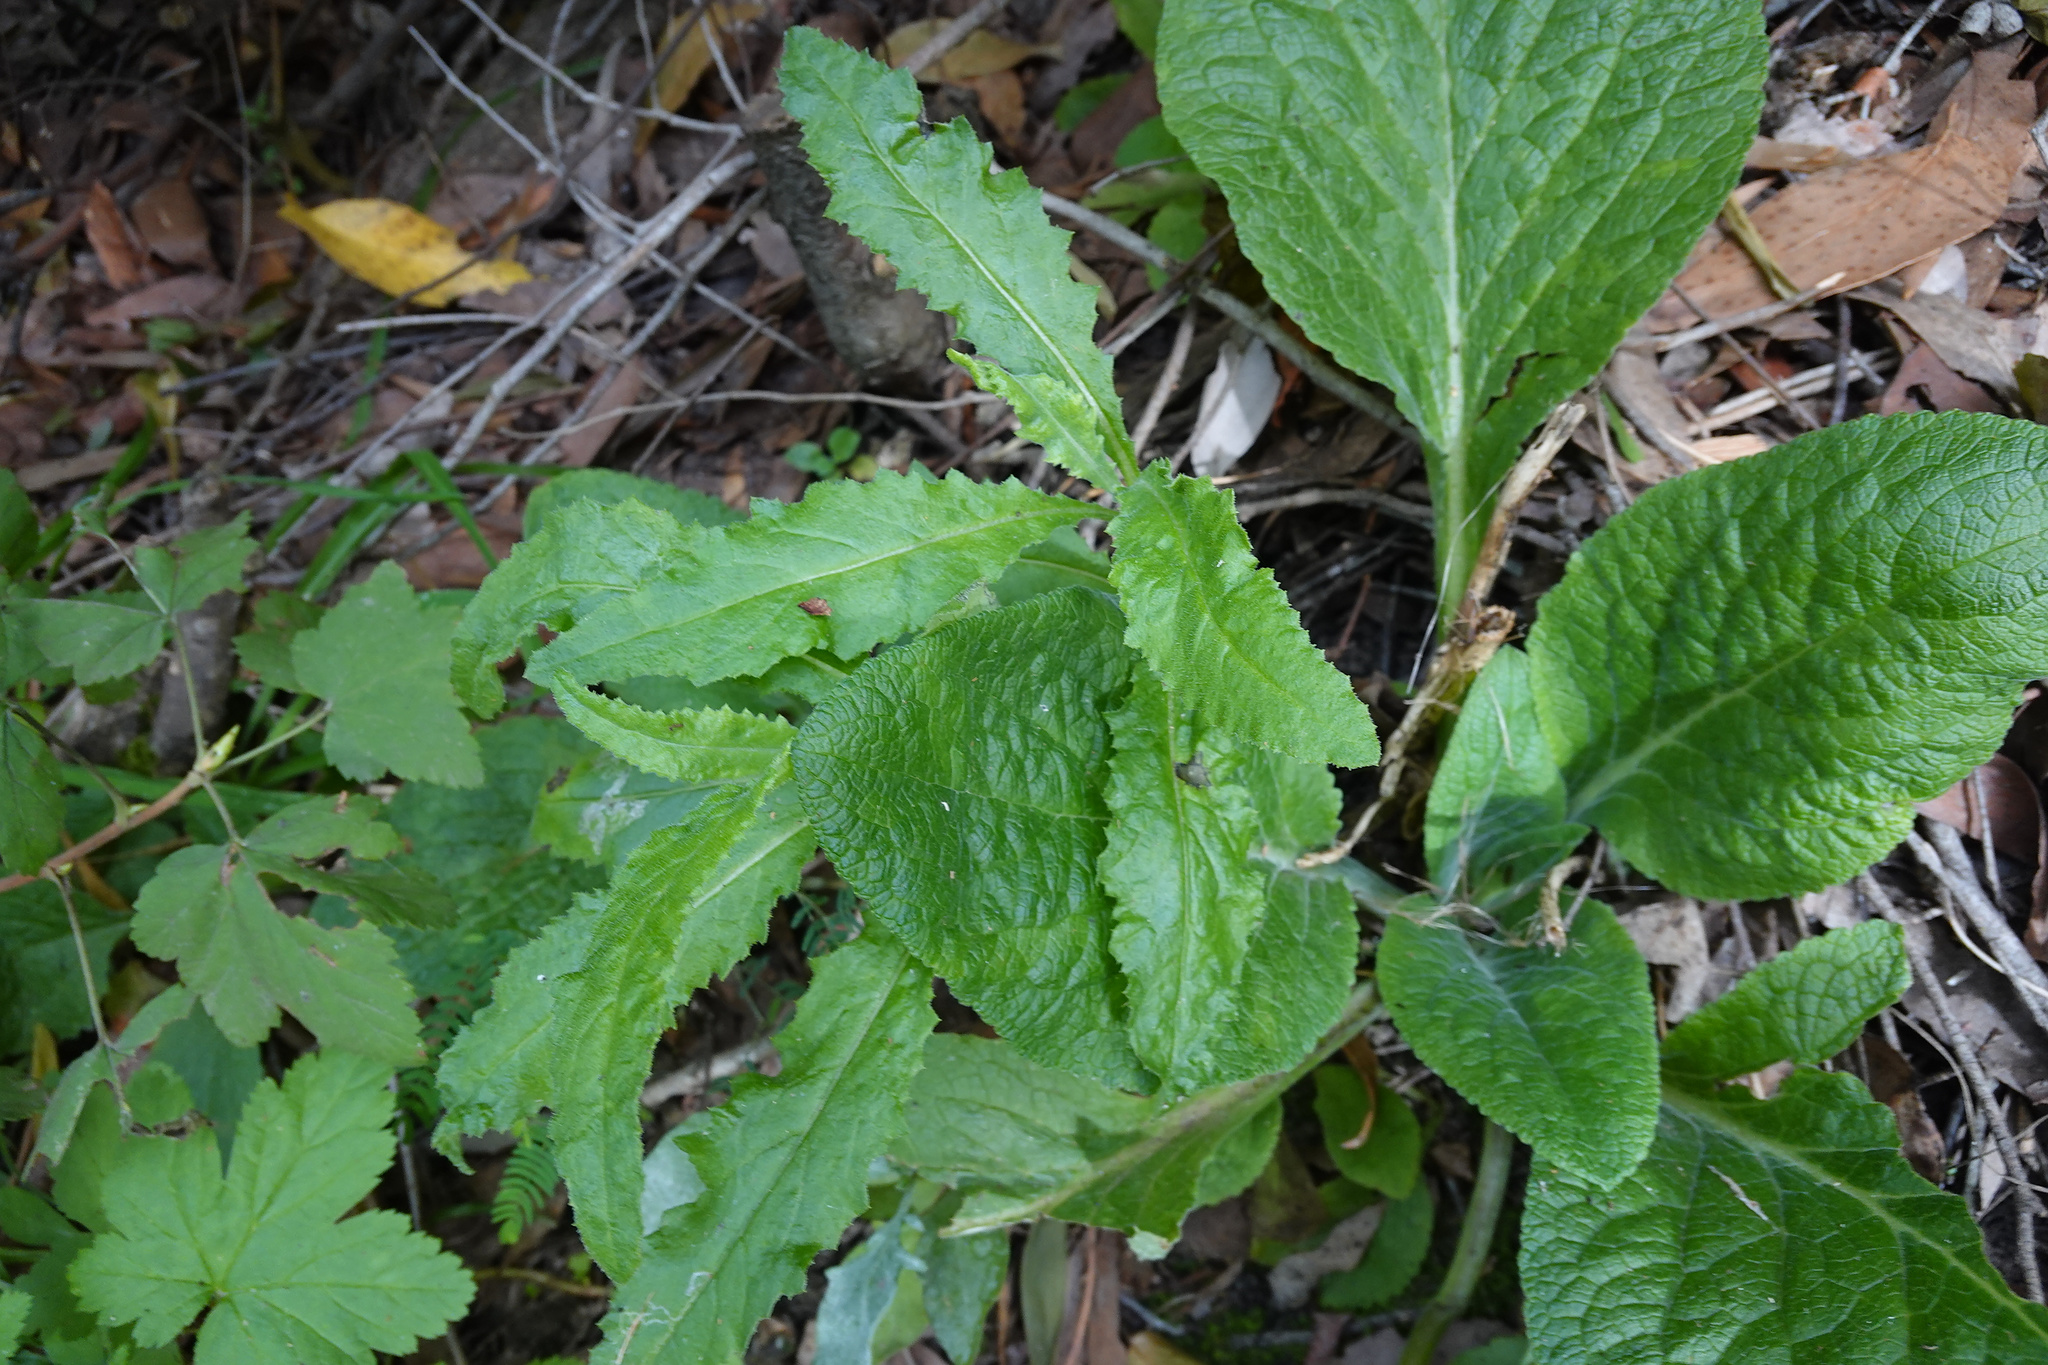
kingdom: Plantae
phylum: Tracheophyta
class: Magnoliopsida
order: Asterales
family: Asteraceae
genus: Senecio
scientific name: Senecio minimus
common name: Toothed fireweed
